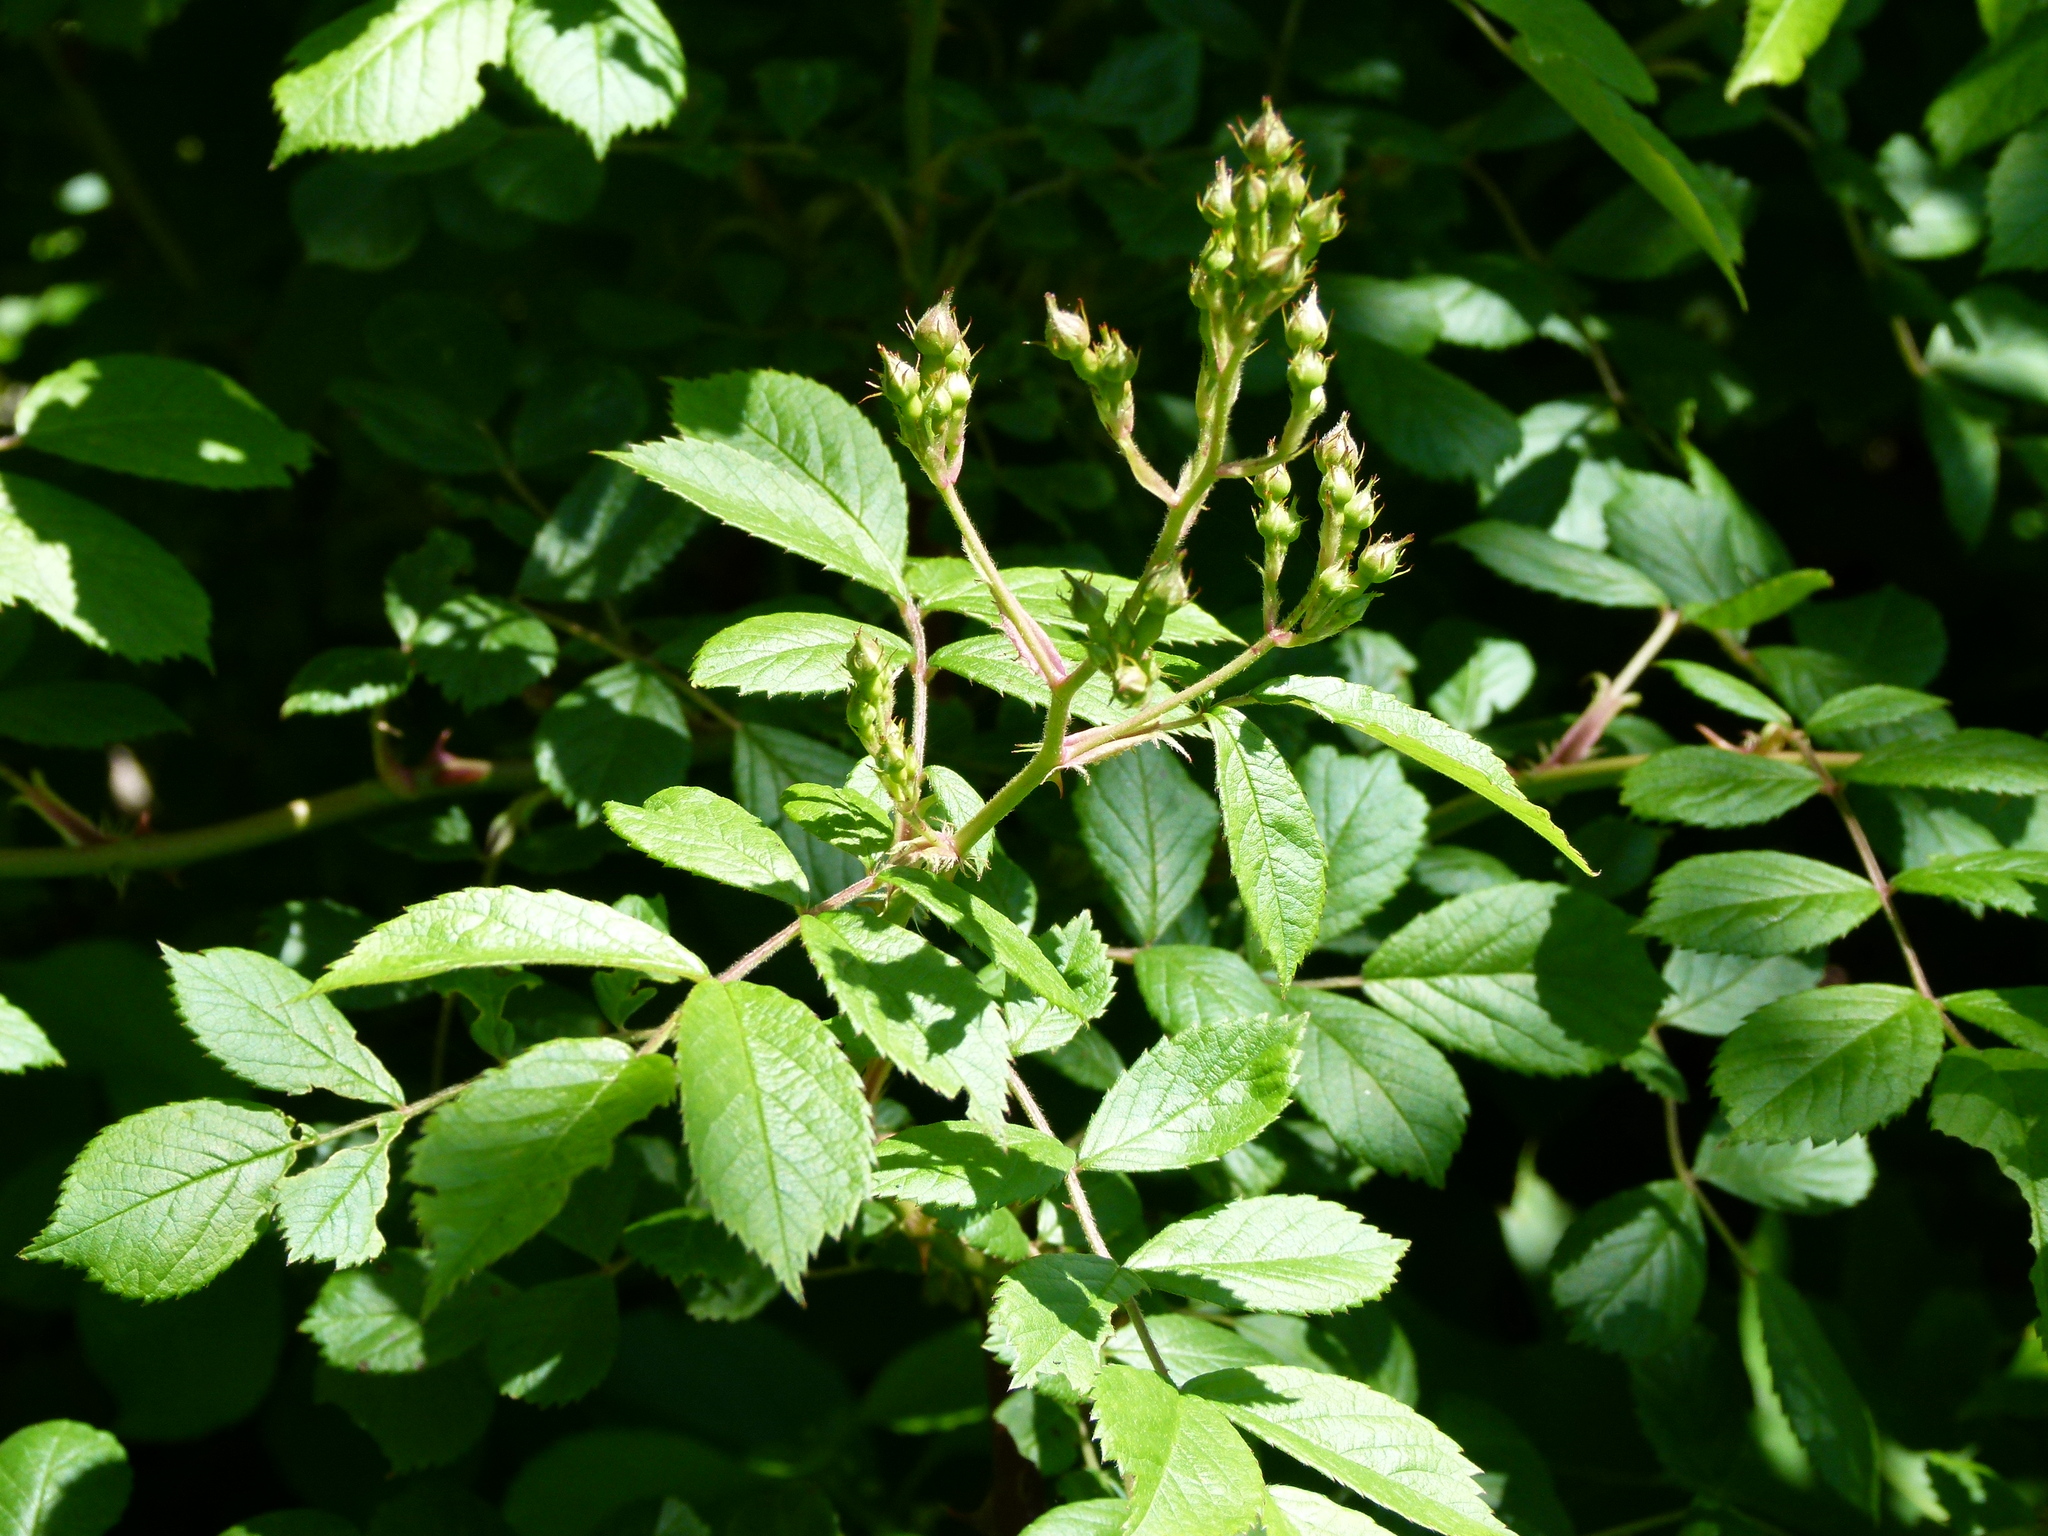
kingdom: Plantae
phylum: Tracheophyta
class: Magnoliopsida
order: Rosales
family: Rosaceae
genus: Rosa
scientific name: Rosa multiflora
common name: Multiflora rose
